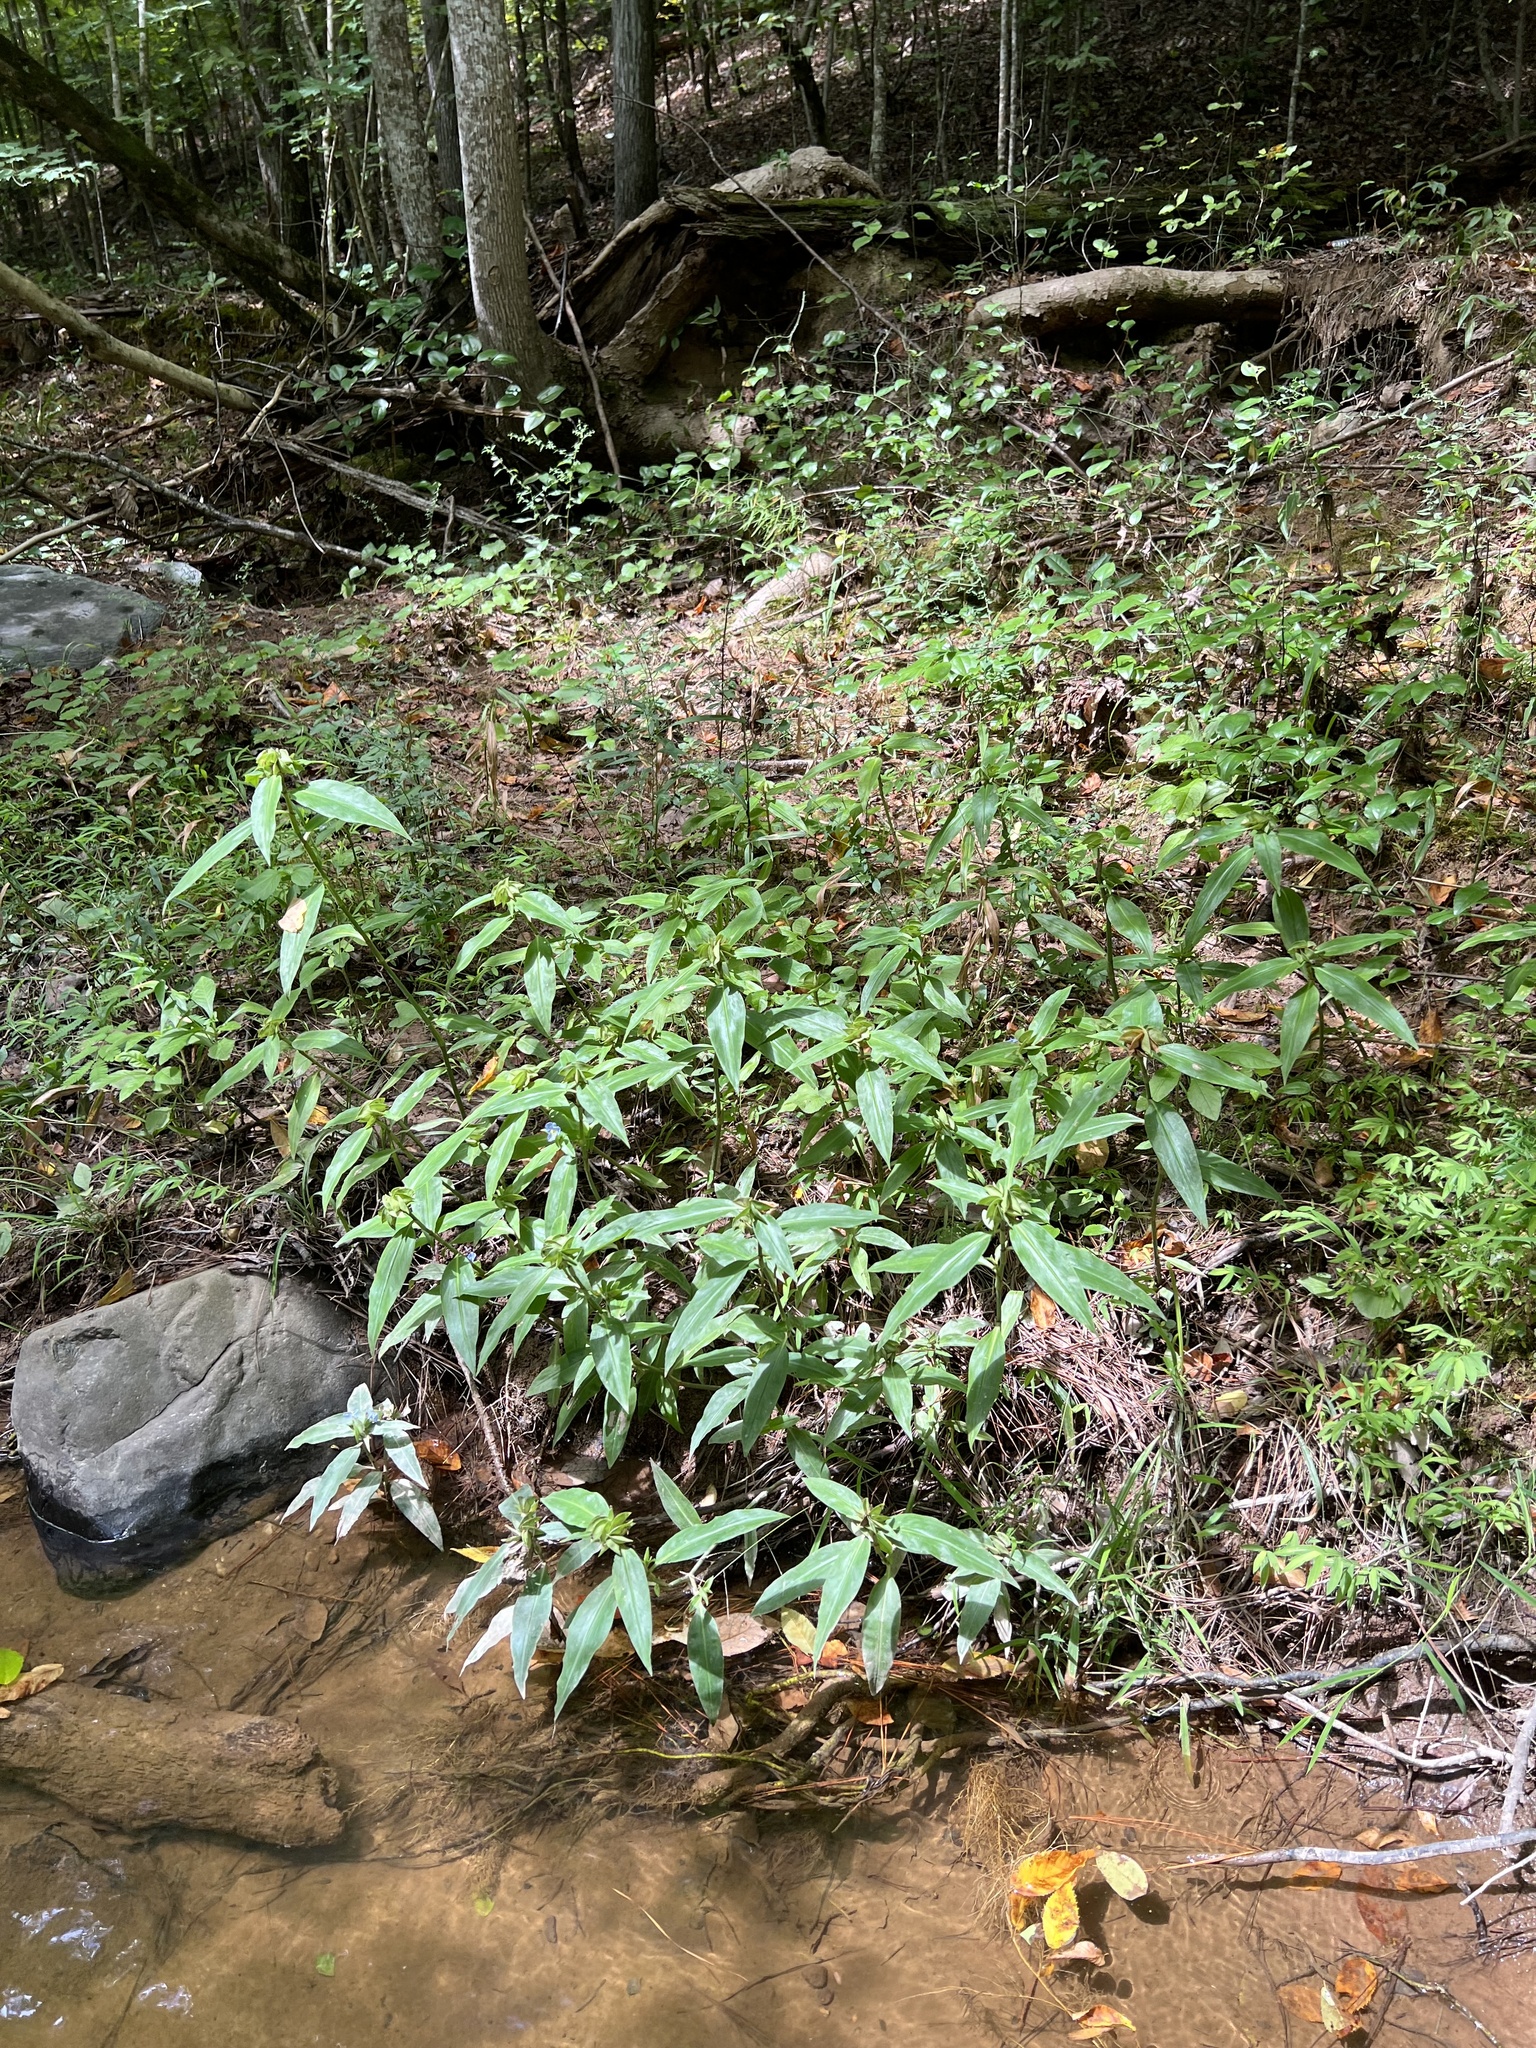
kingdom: Plantae
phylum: Tracheophyta
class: Liliopsida
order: Commelinales
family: Commelinaceae
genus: Commelina
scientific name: Commelina virginica
